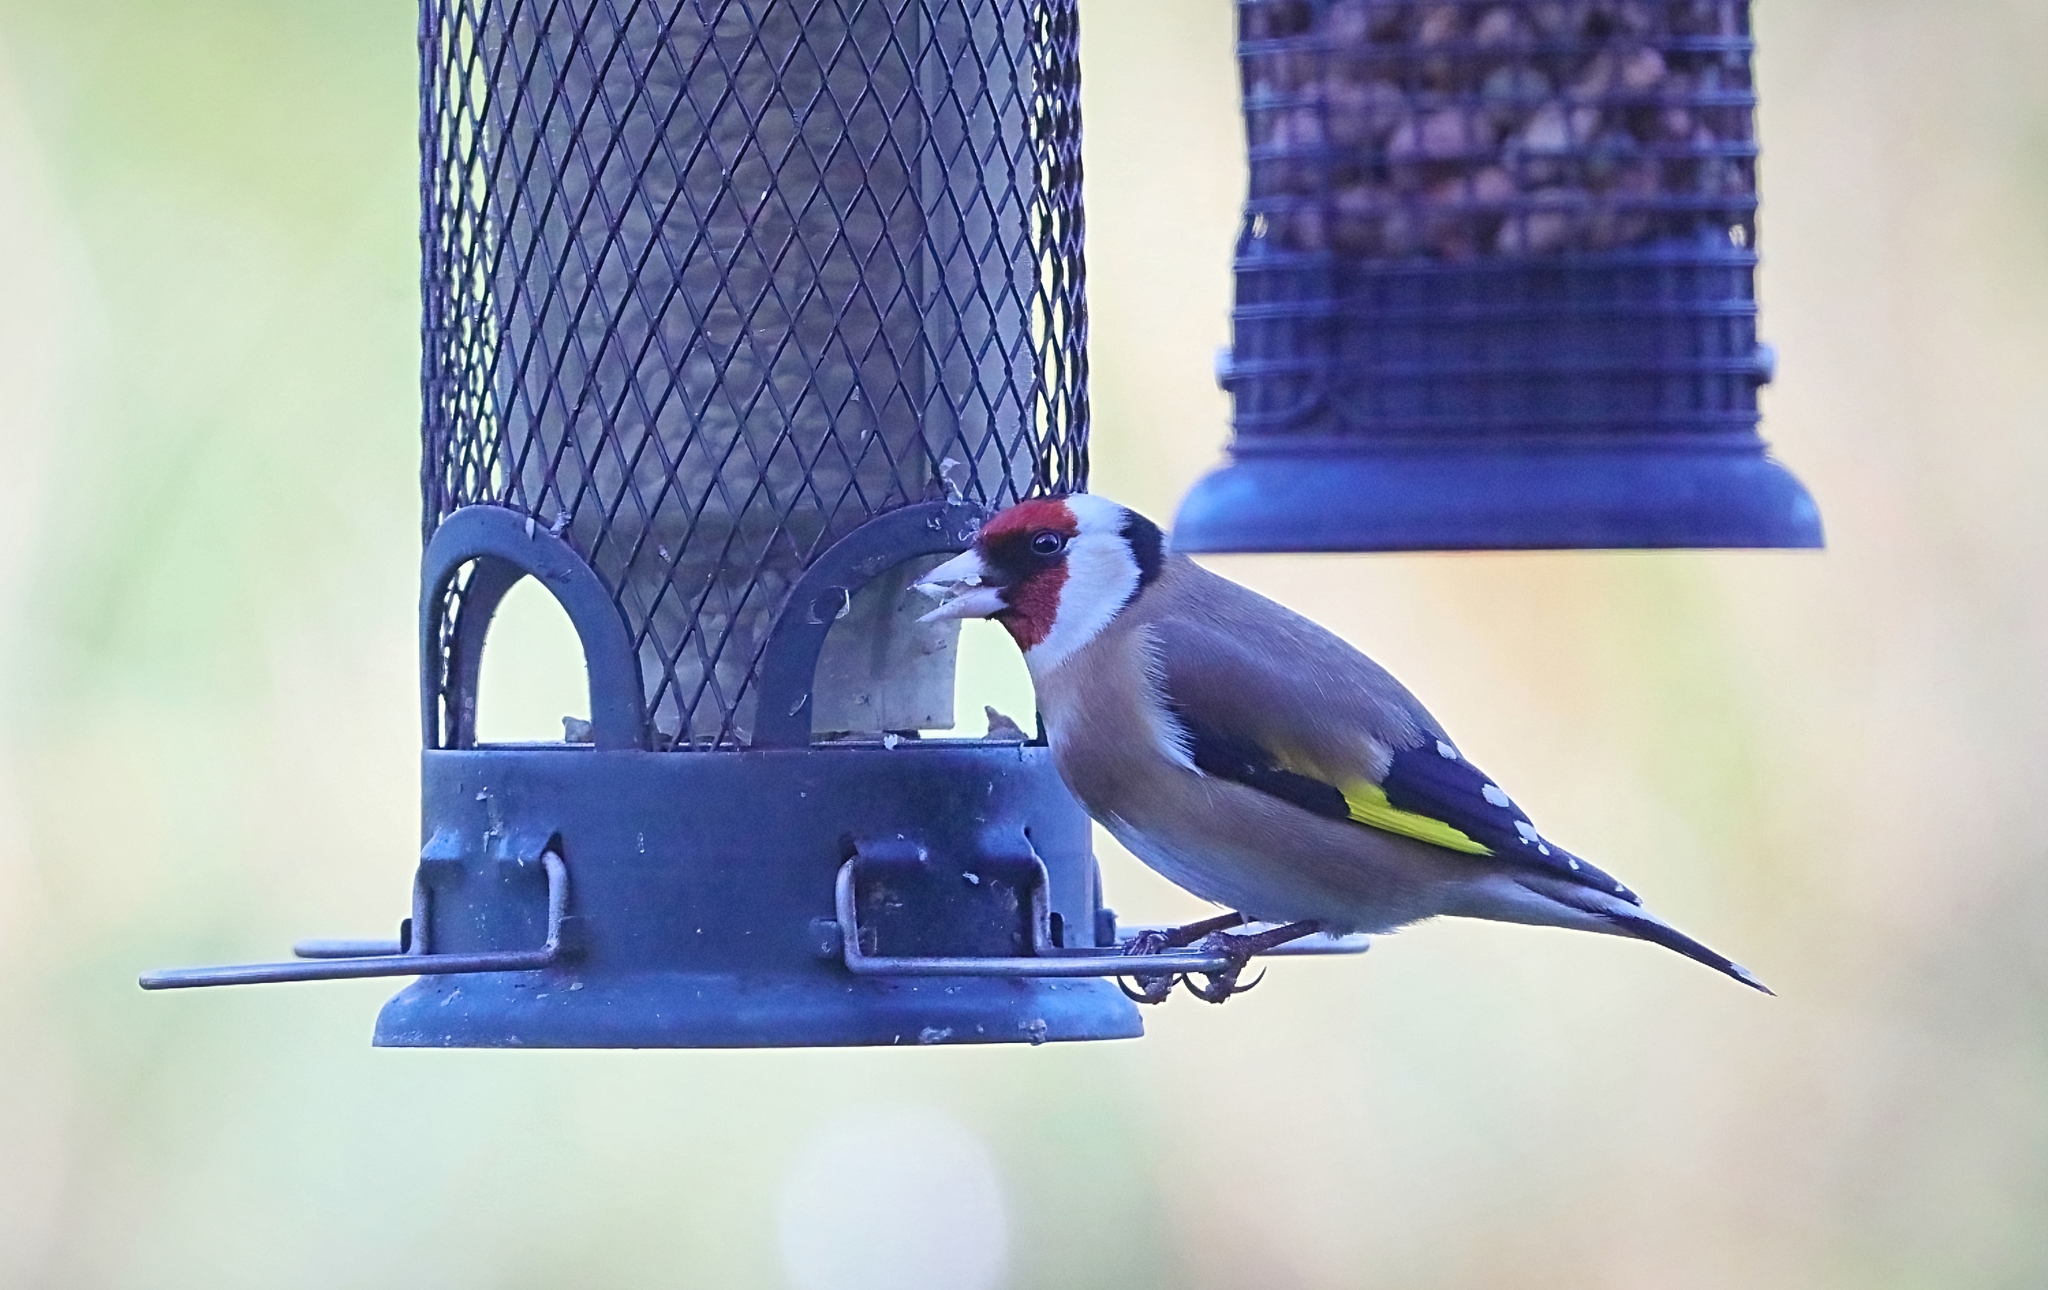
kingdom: Animalia
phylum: Chordata
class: Aves
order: Passeriformes
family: Fringillidae
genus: Carduelis
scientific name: Carduelis carduelis
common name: European goldfinch
